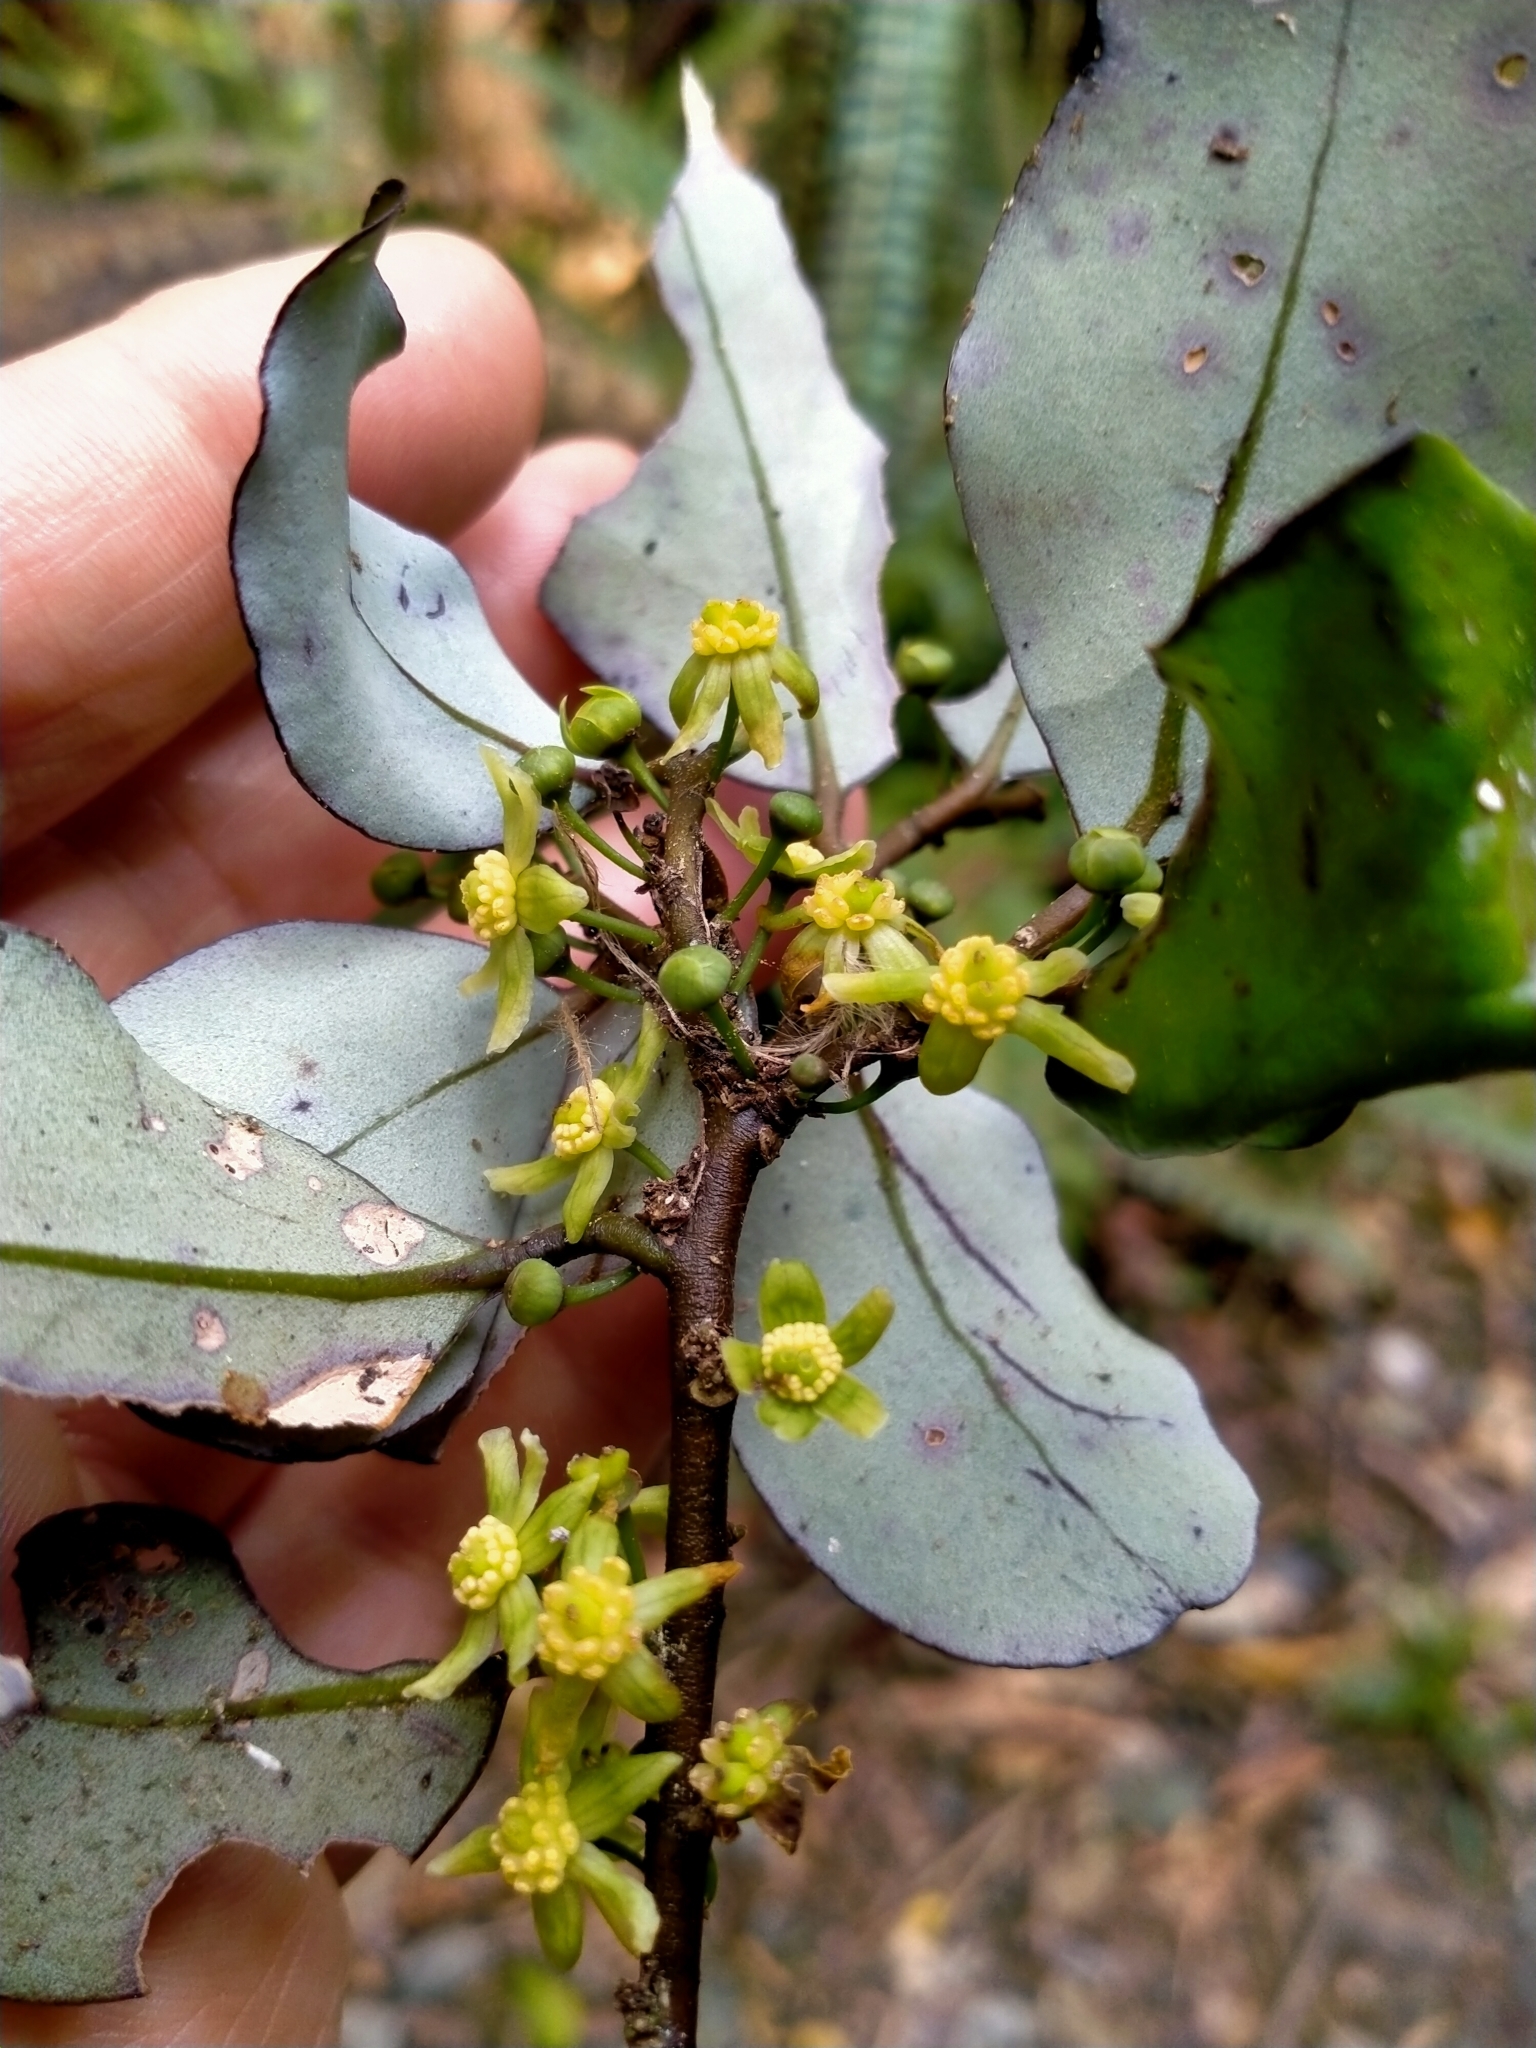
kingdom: Plantae
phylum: Tracheophyta
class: Magnoliopsida
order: Canellales
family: Winteraceae
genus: Pseudowintera
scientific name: Pseudowintera colorata
